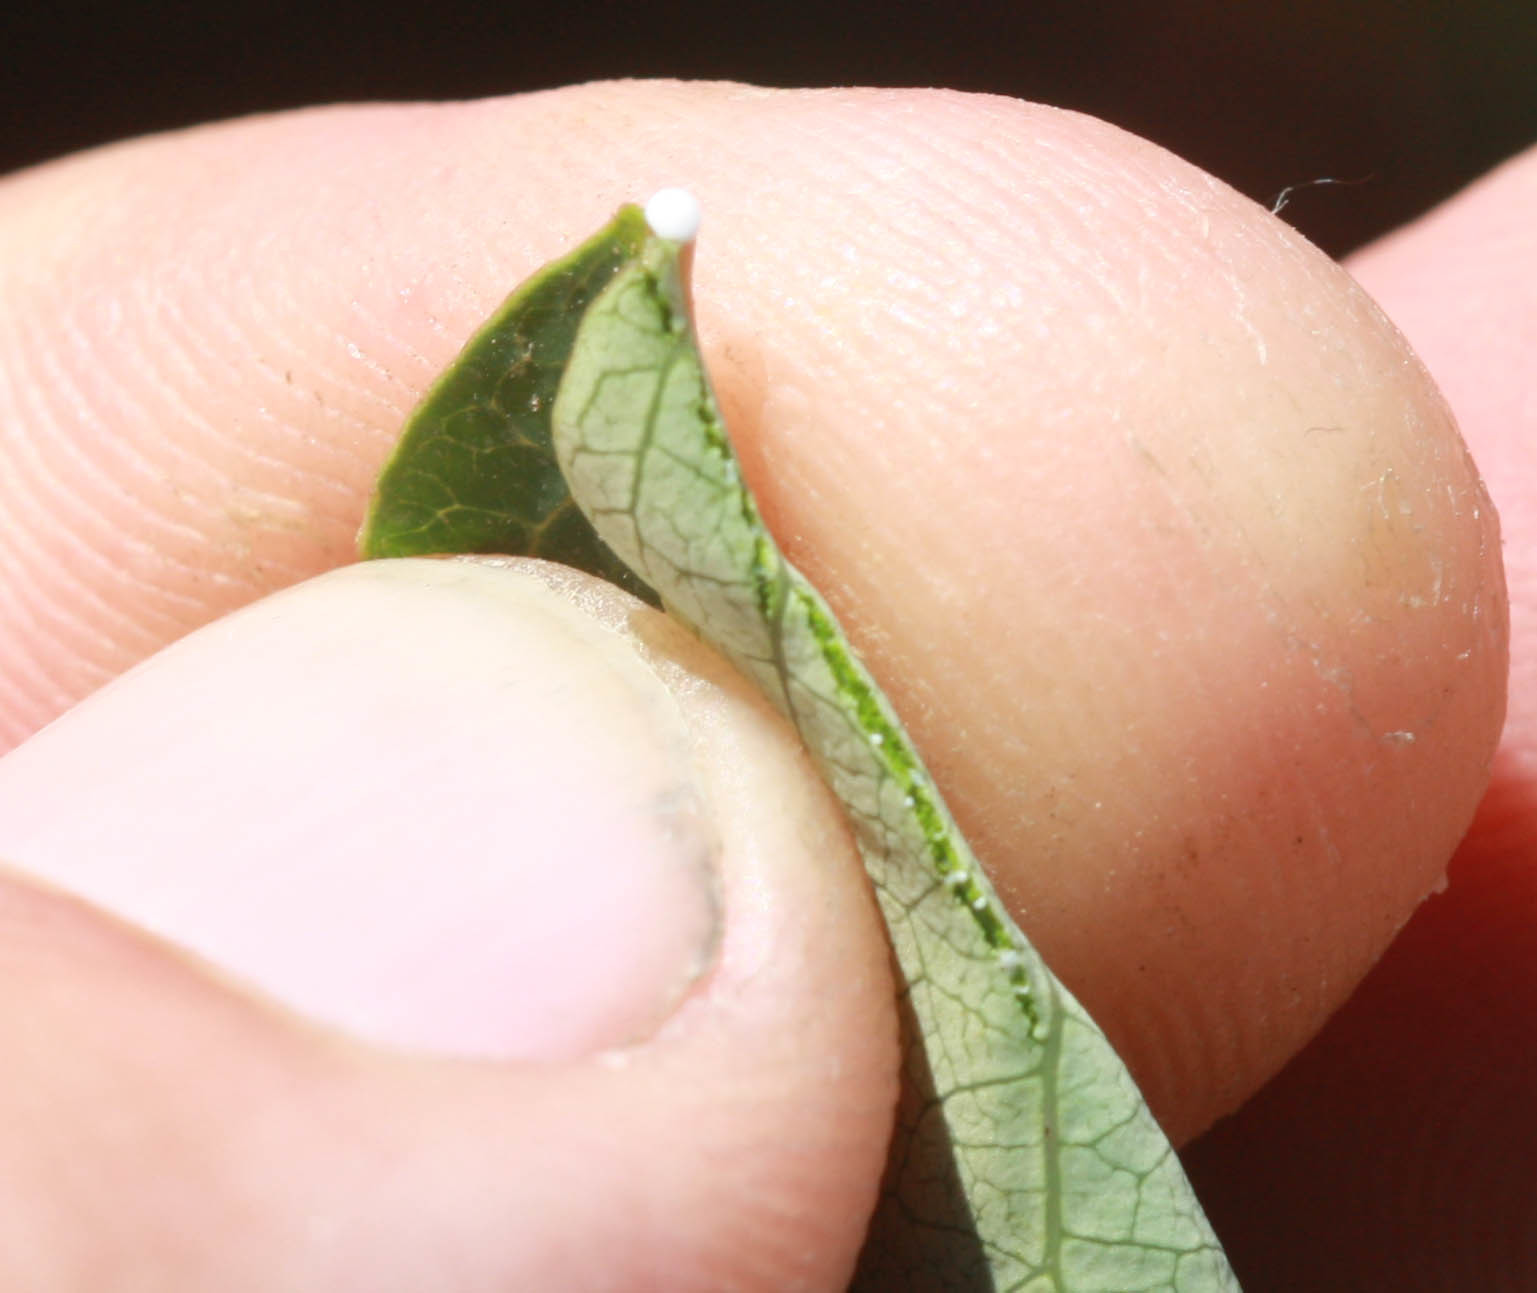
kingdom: Plantae
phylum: Tracheophyta
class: Magnoliopsida
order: Gentianales
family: Apocynaceae
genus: Apocynum
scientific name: Apocynum androsaemifolium
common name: Spreading dogbane
